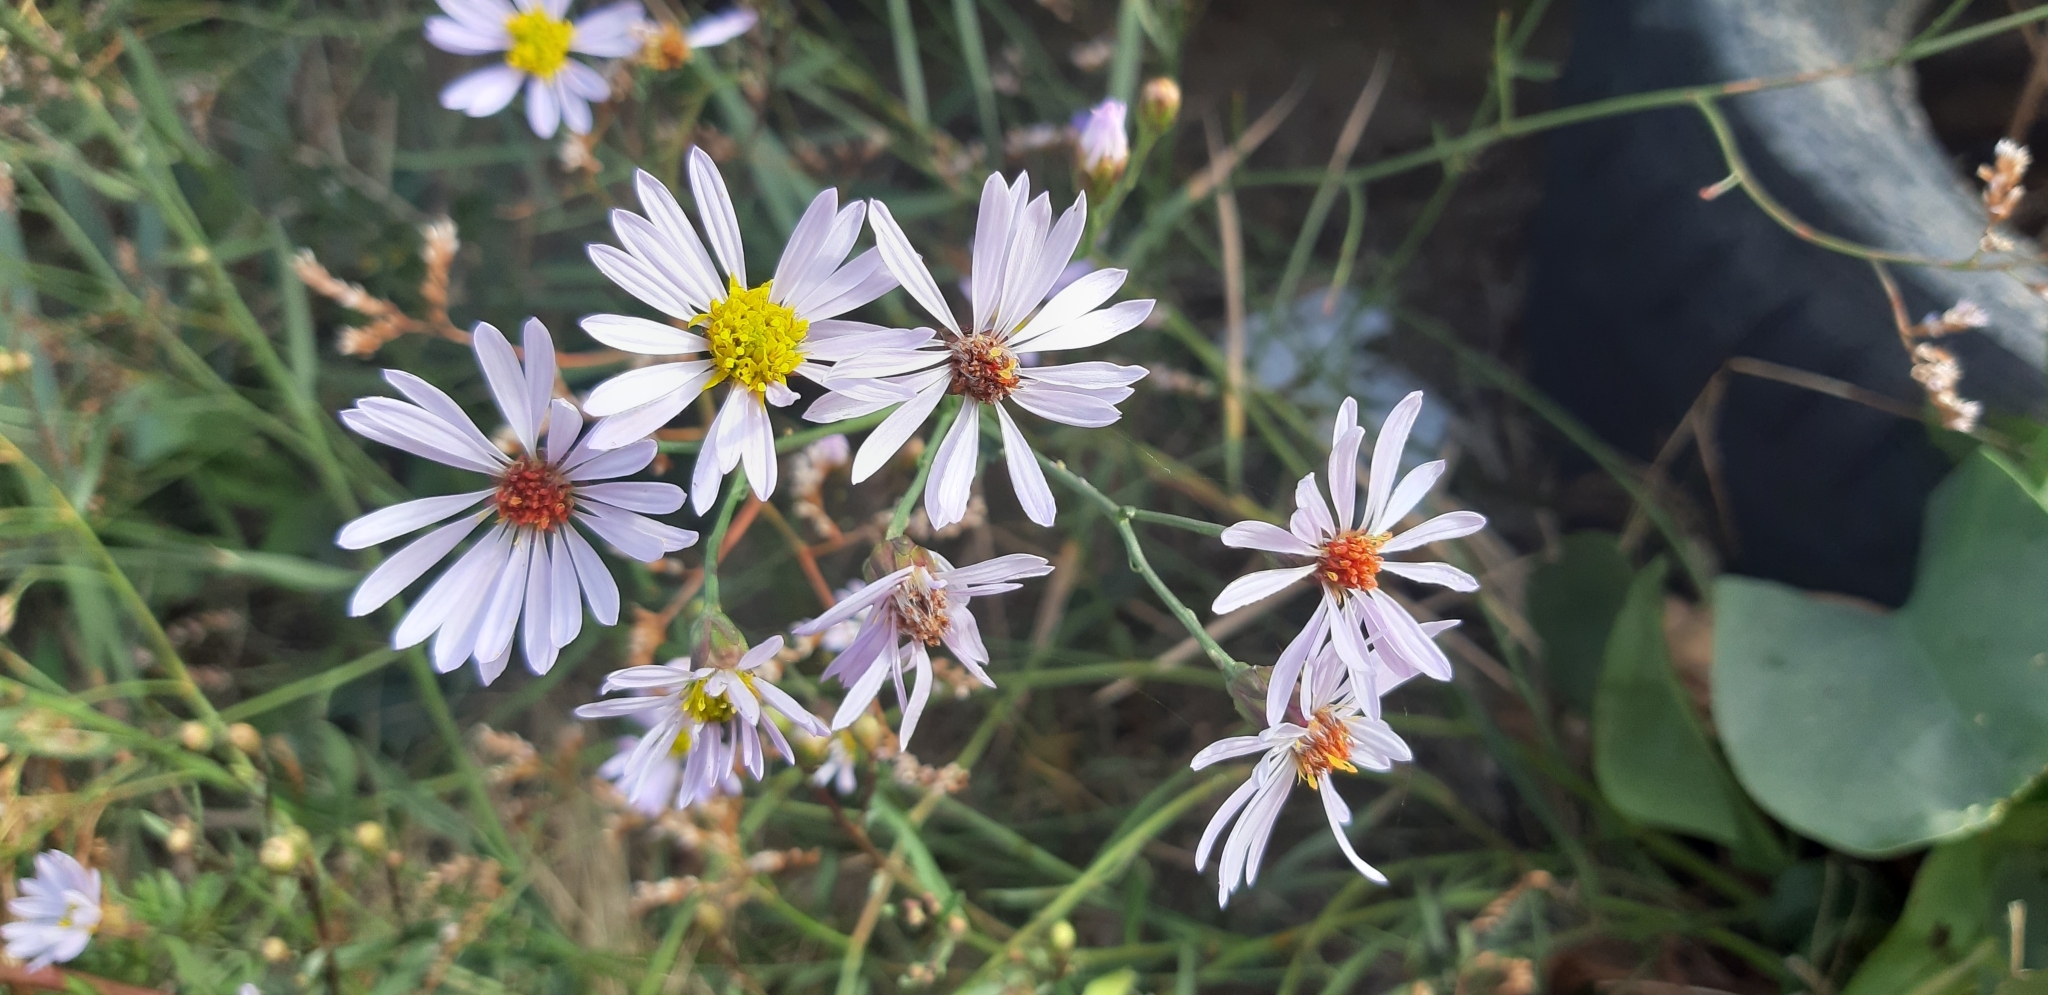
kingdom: Plantae
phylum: Tracheophyta
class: Magnoliopsida
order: Asterales
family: Asteraceae
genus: Tripolium
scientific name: Tripolium pannonicum
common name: Sea aster
